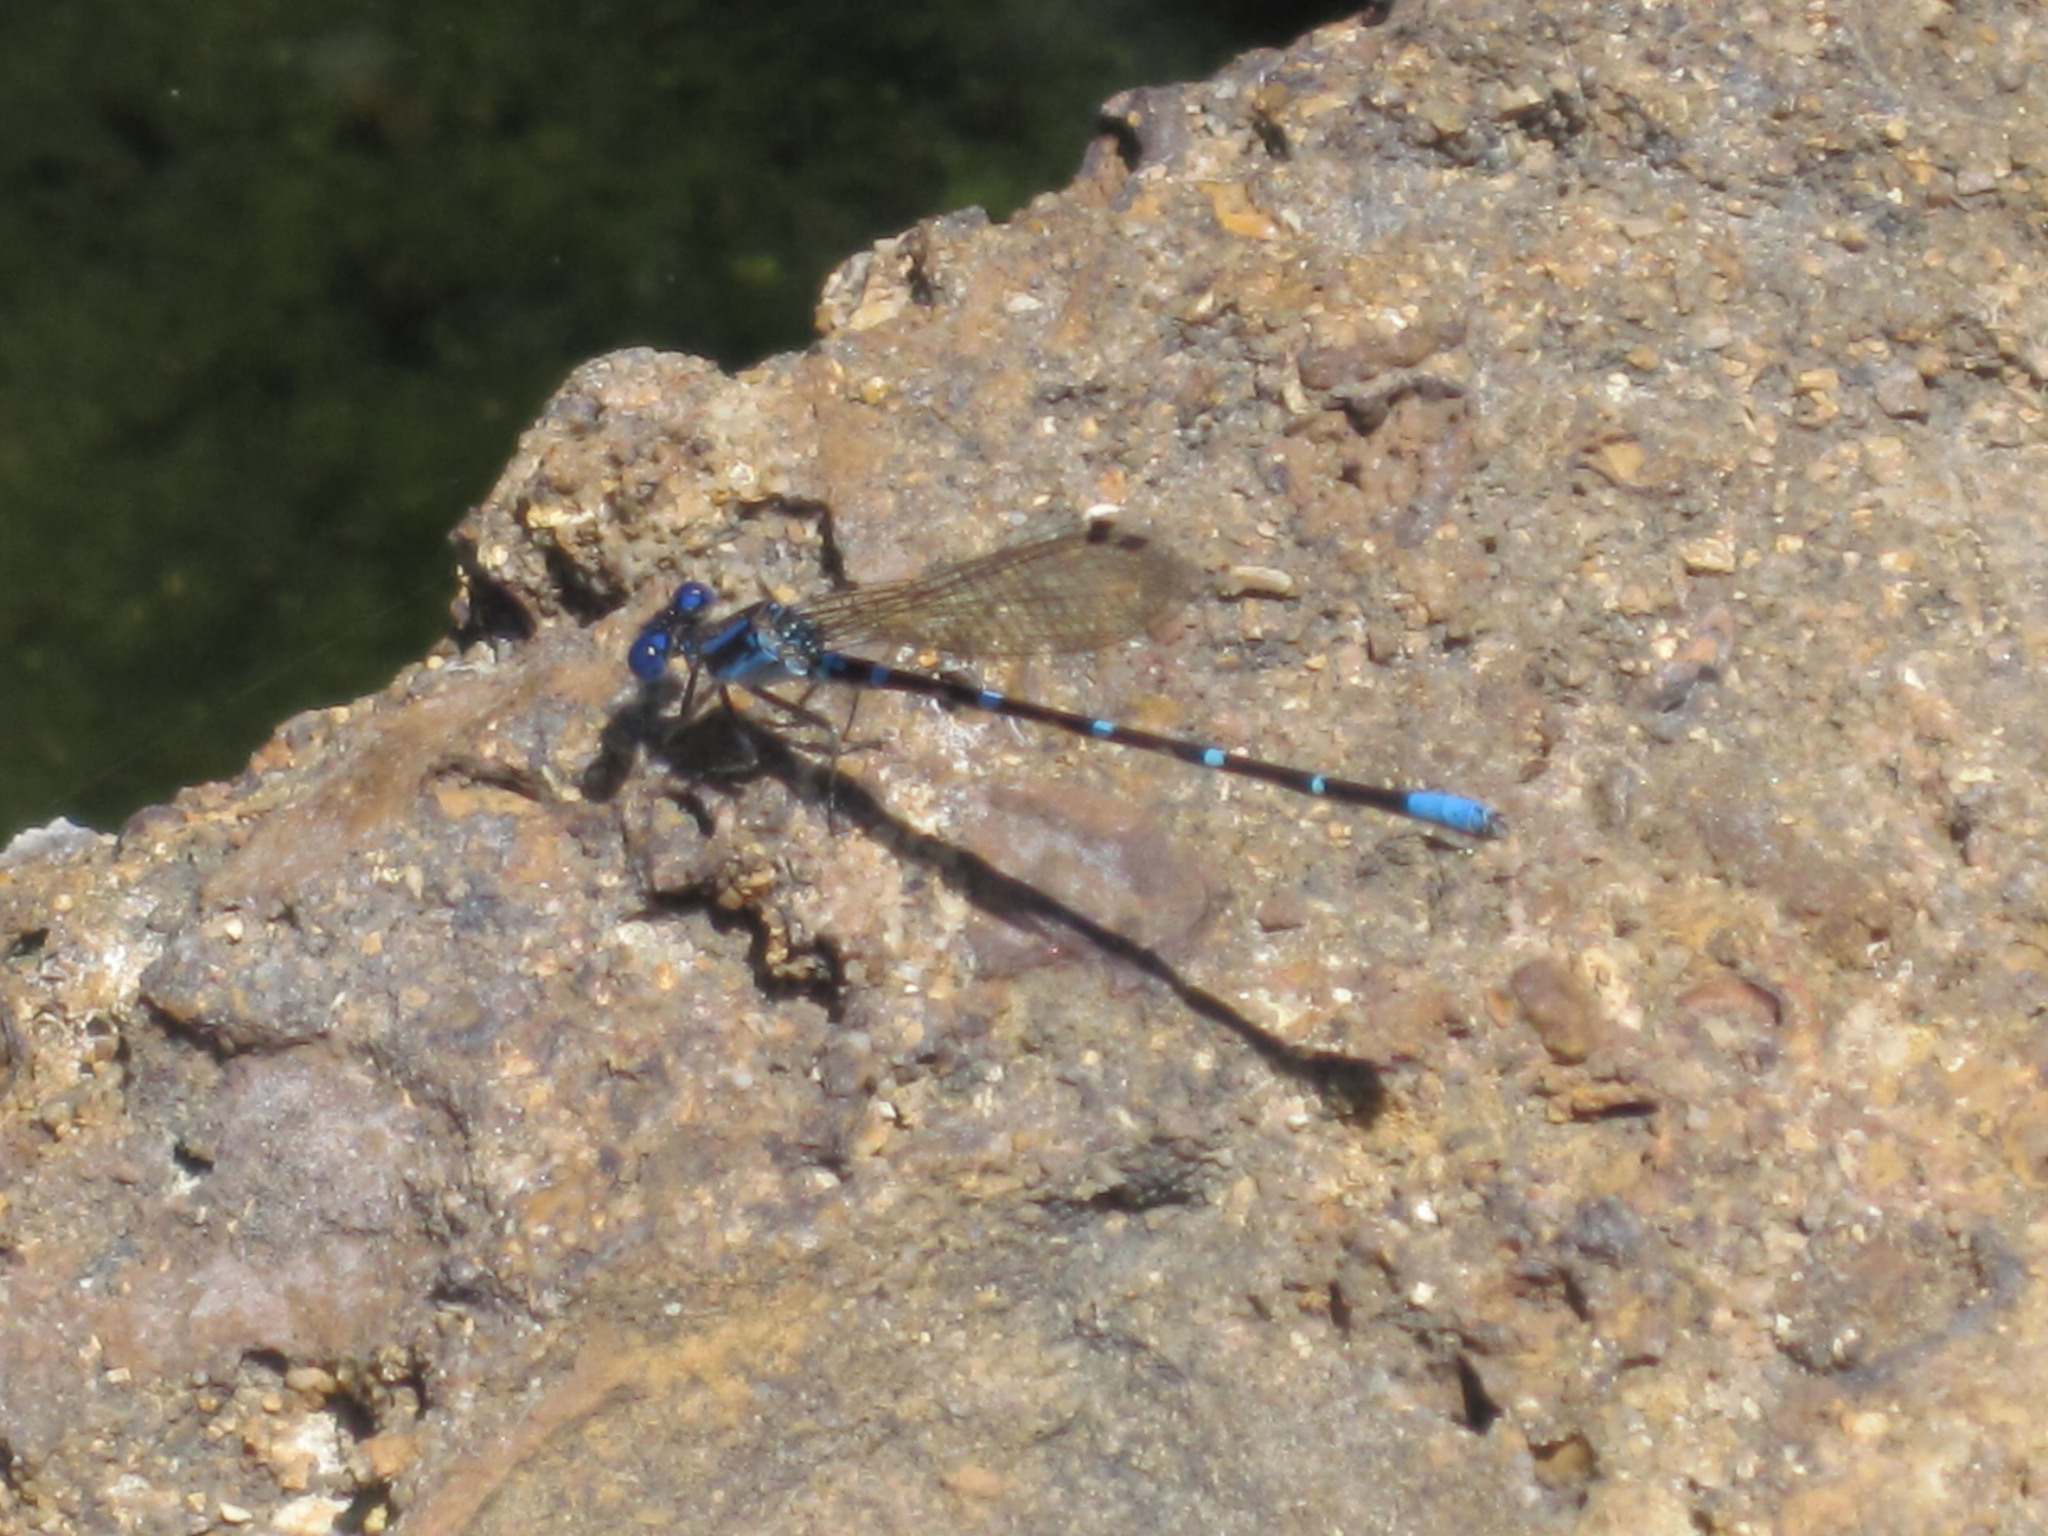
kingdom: Animalia
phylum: Arthropoda
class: Insecta
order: Odonata
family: Coenagrionidae
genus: Argia
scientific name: Argia sedula
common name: Blue-ringed dancer
